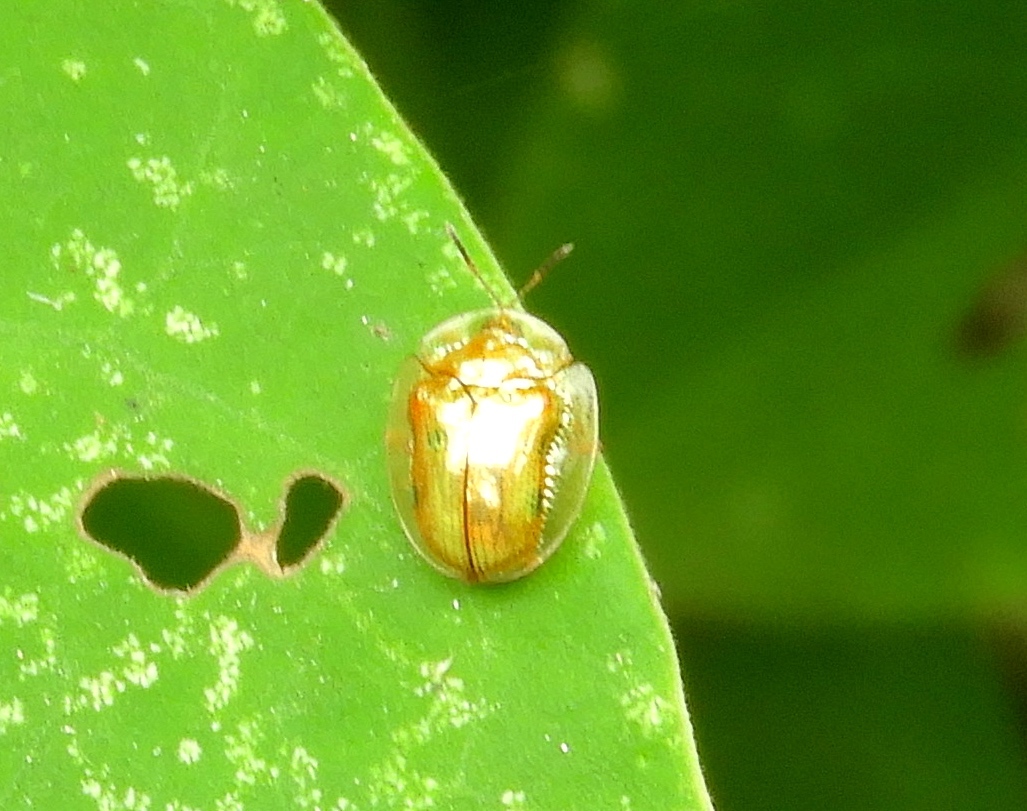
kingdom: Animalia
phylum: Arthropoda
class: Insecta
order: Coleoptera
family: Chrysomelidae
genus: Charidotella
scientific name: Charidotella
